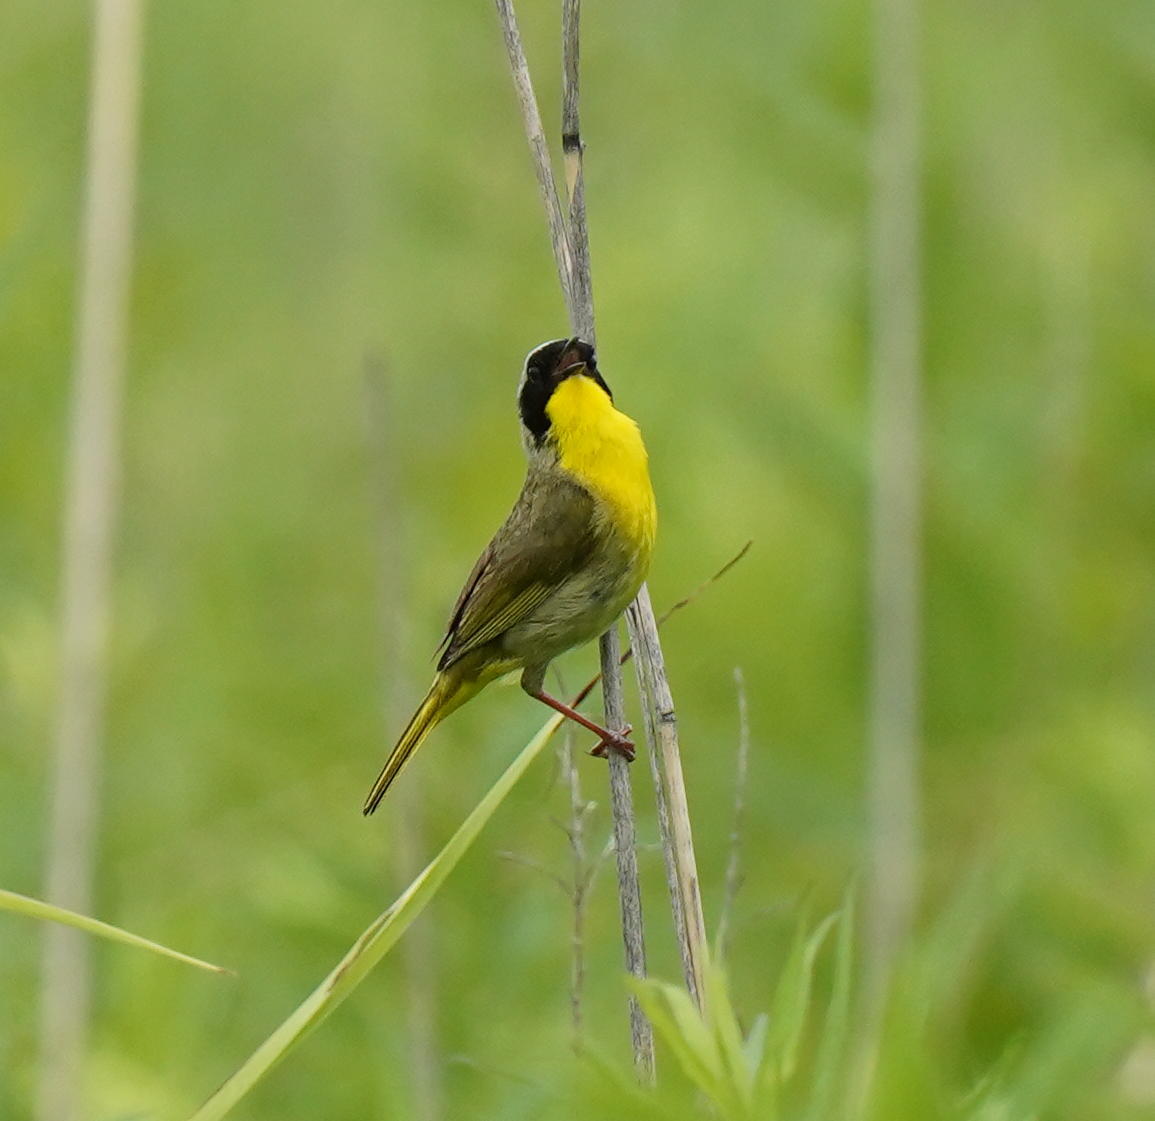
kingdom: Animalia
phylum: Chordata
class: Aves
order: Passeriformes
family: Parulidae
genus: Geothlypis
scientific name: Geothlypis trichas
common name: Common yellowthroat
